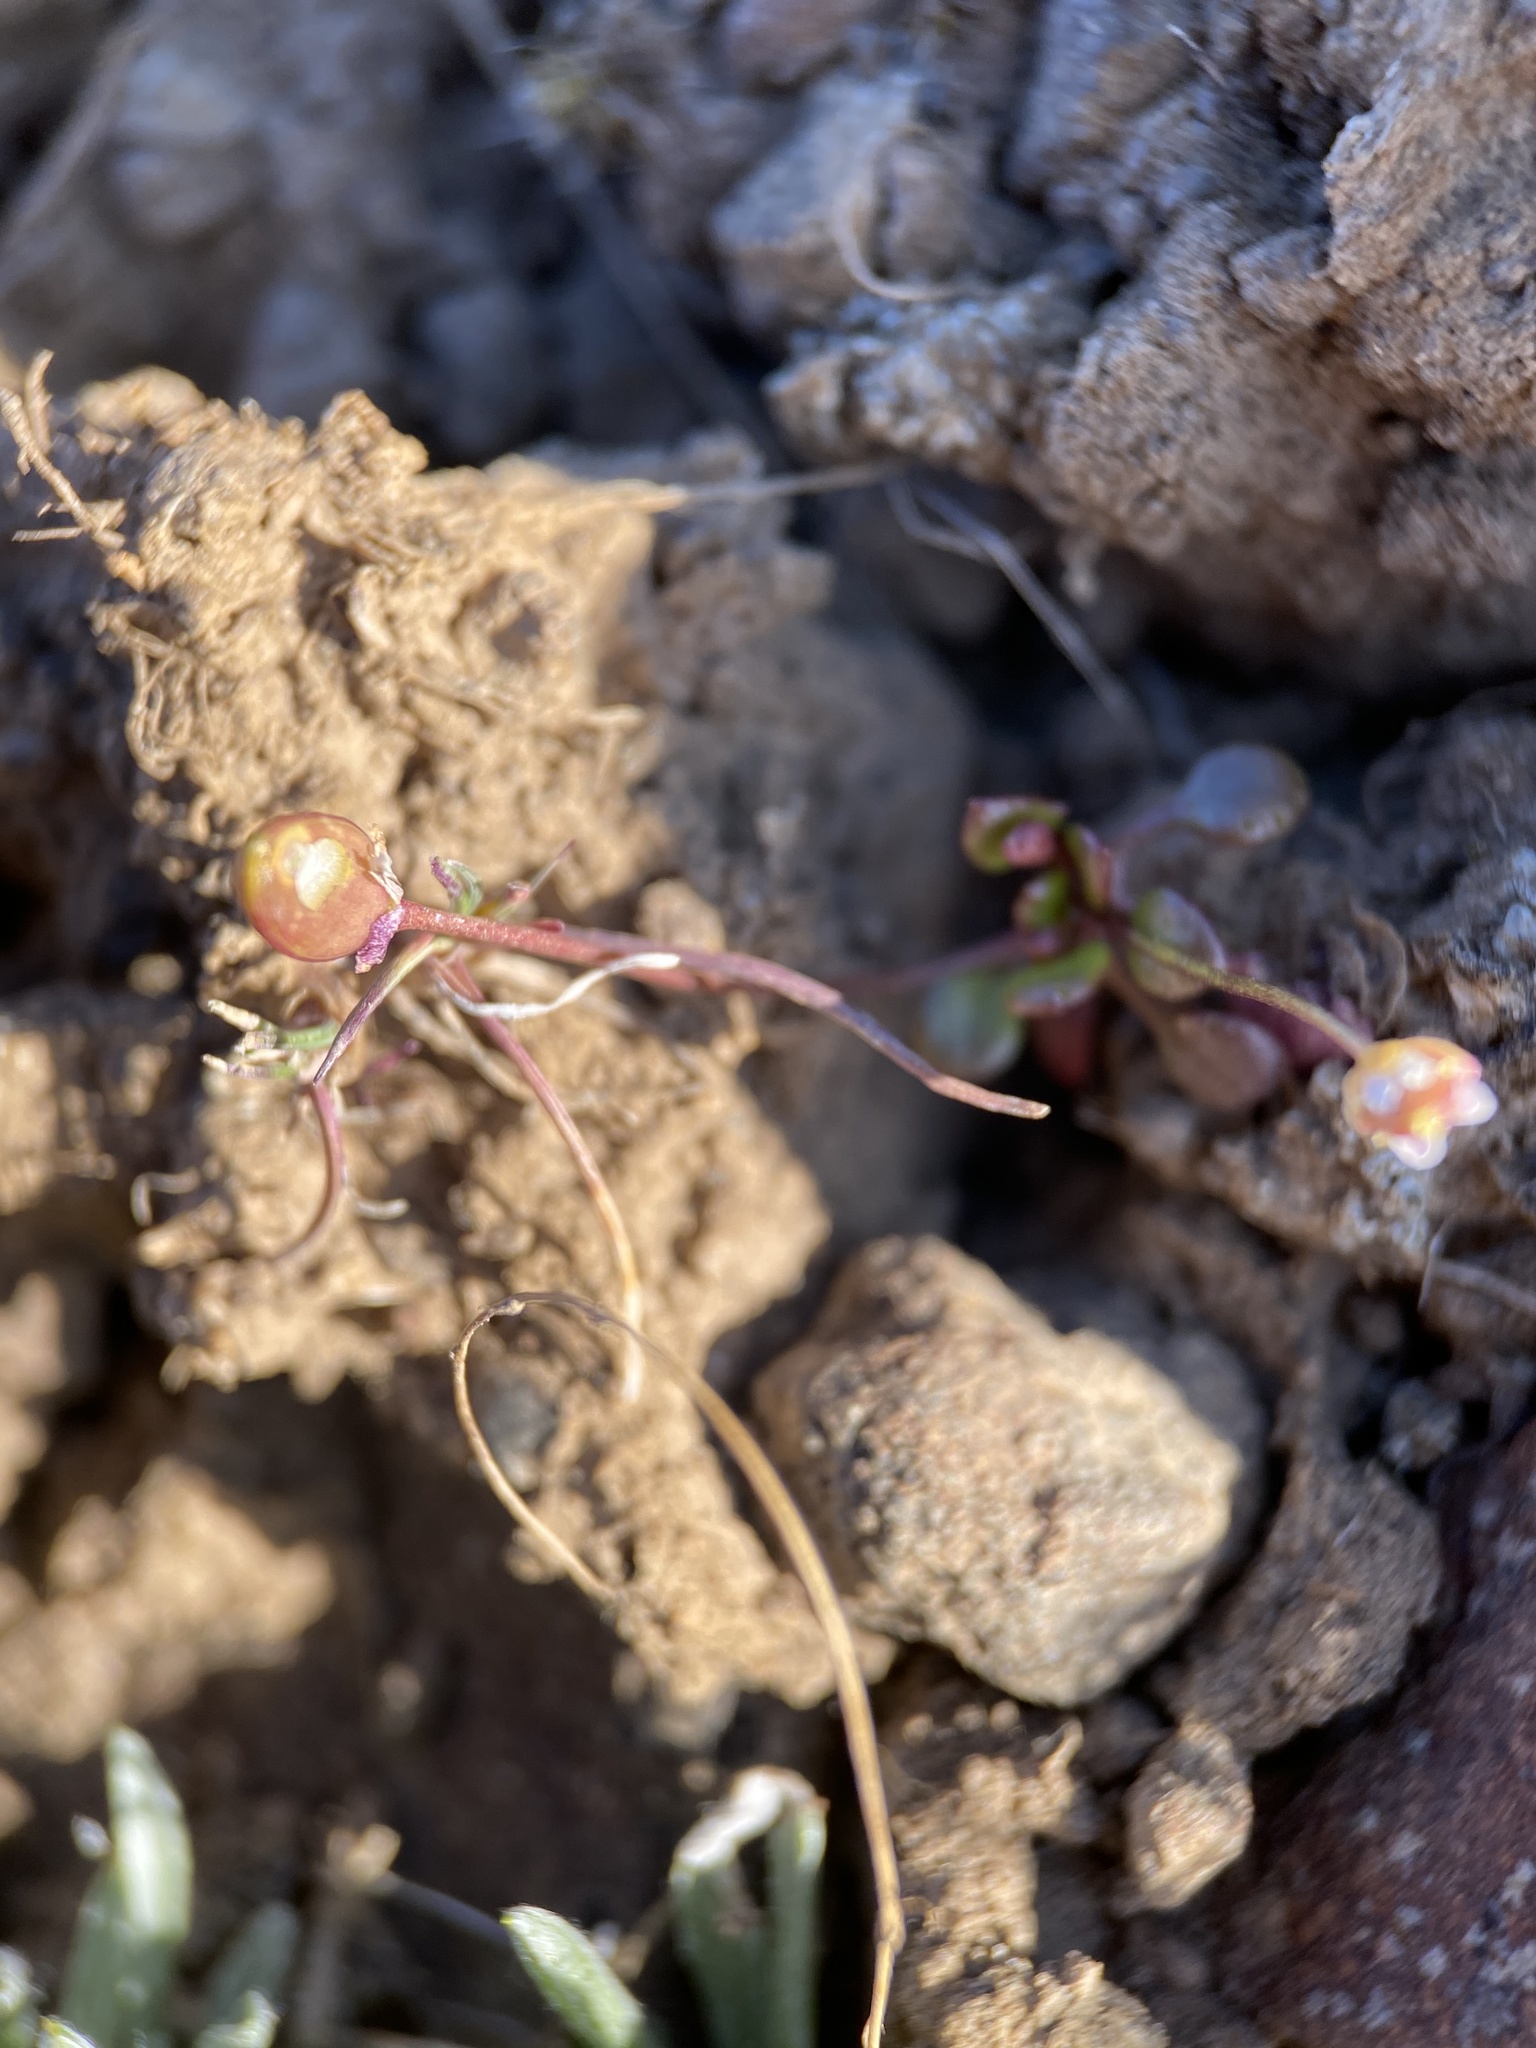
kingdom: Plantae
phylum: Tracheophyta
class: Magnoliopsida
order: Brassicales
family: Brassicaceae
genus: Idahoa
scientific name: Idahoa scapigera
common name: Scalepod
